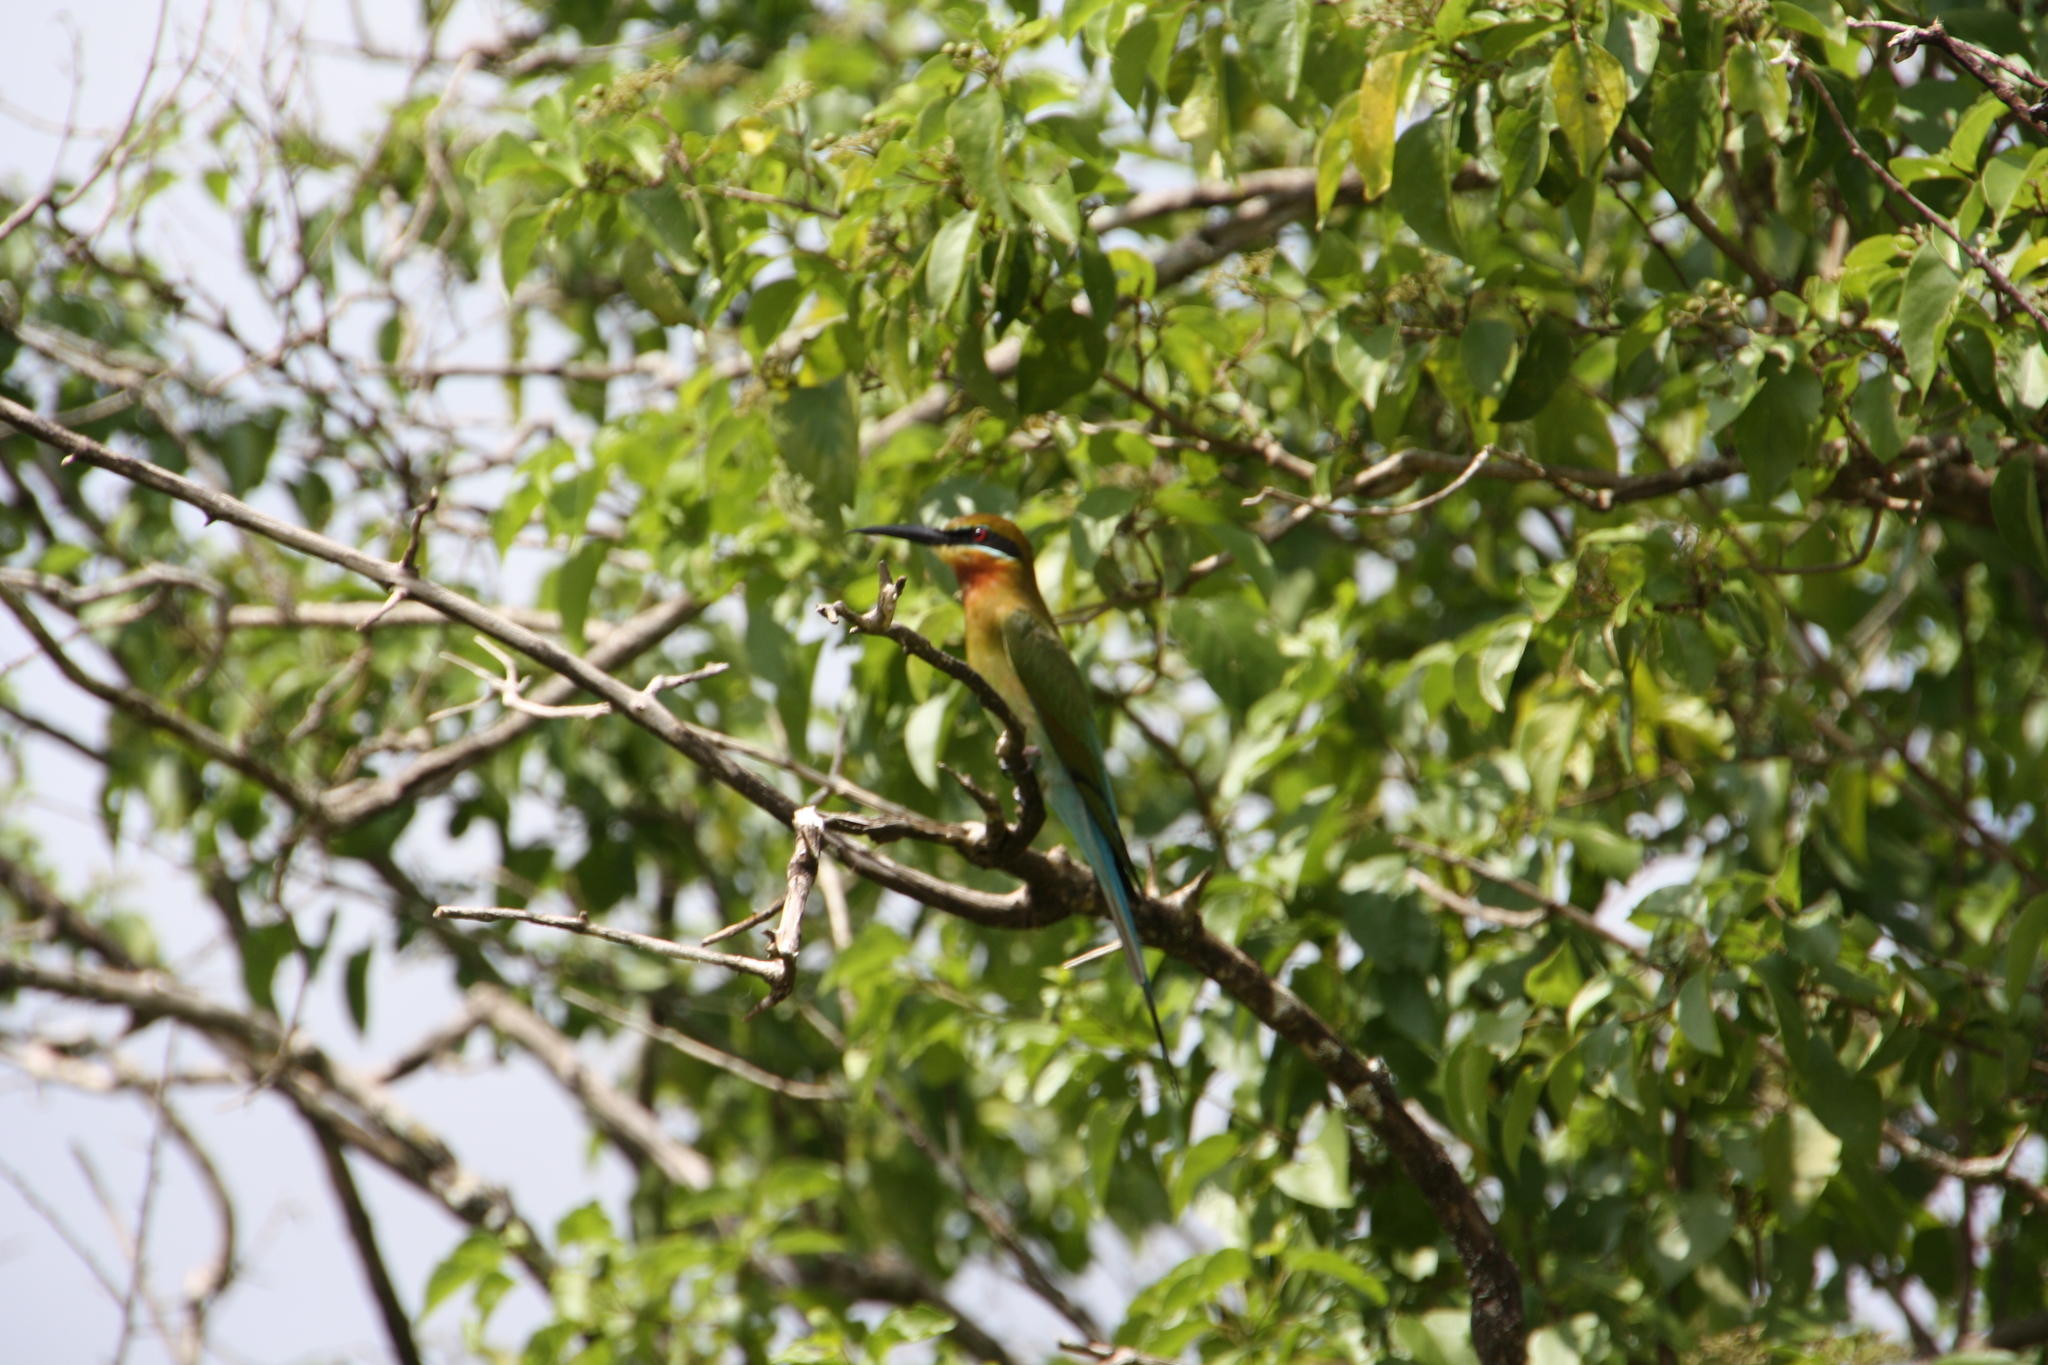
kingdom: Animalia
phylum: Chordata
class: Aves
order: Coraciiformes
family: Meropidae
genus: Merops
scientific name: Merops philippinus
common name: Blue-tailed bee-eater
